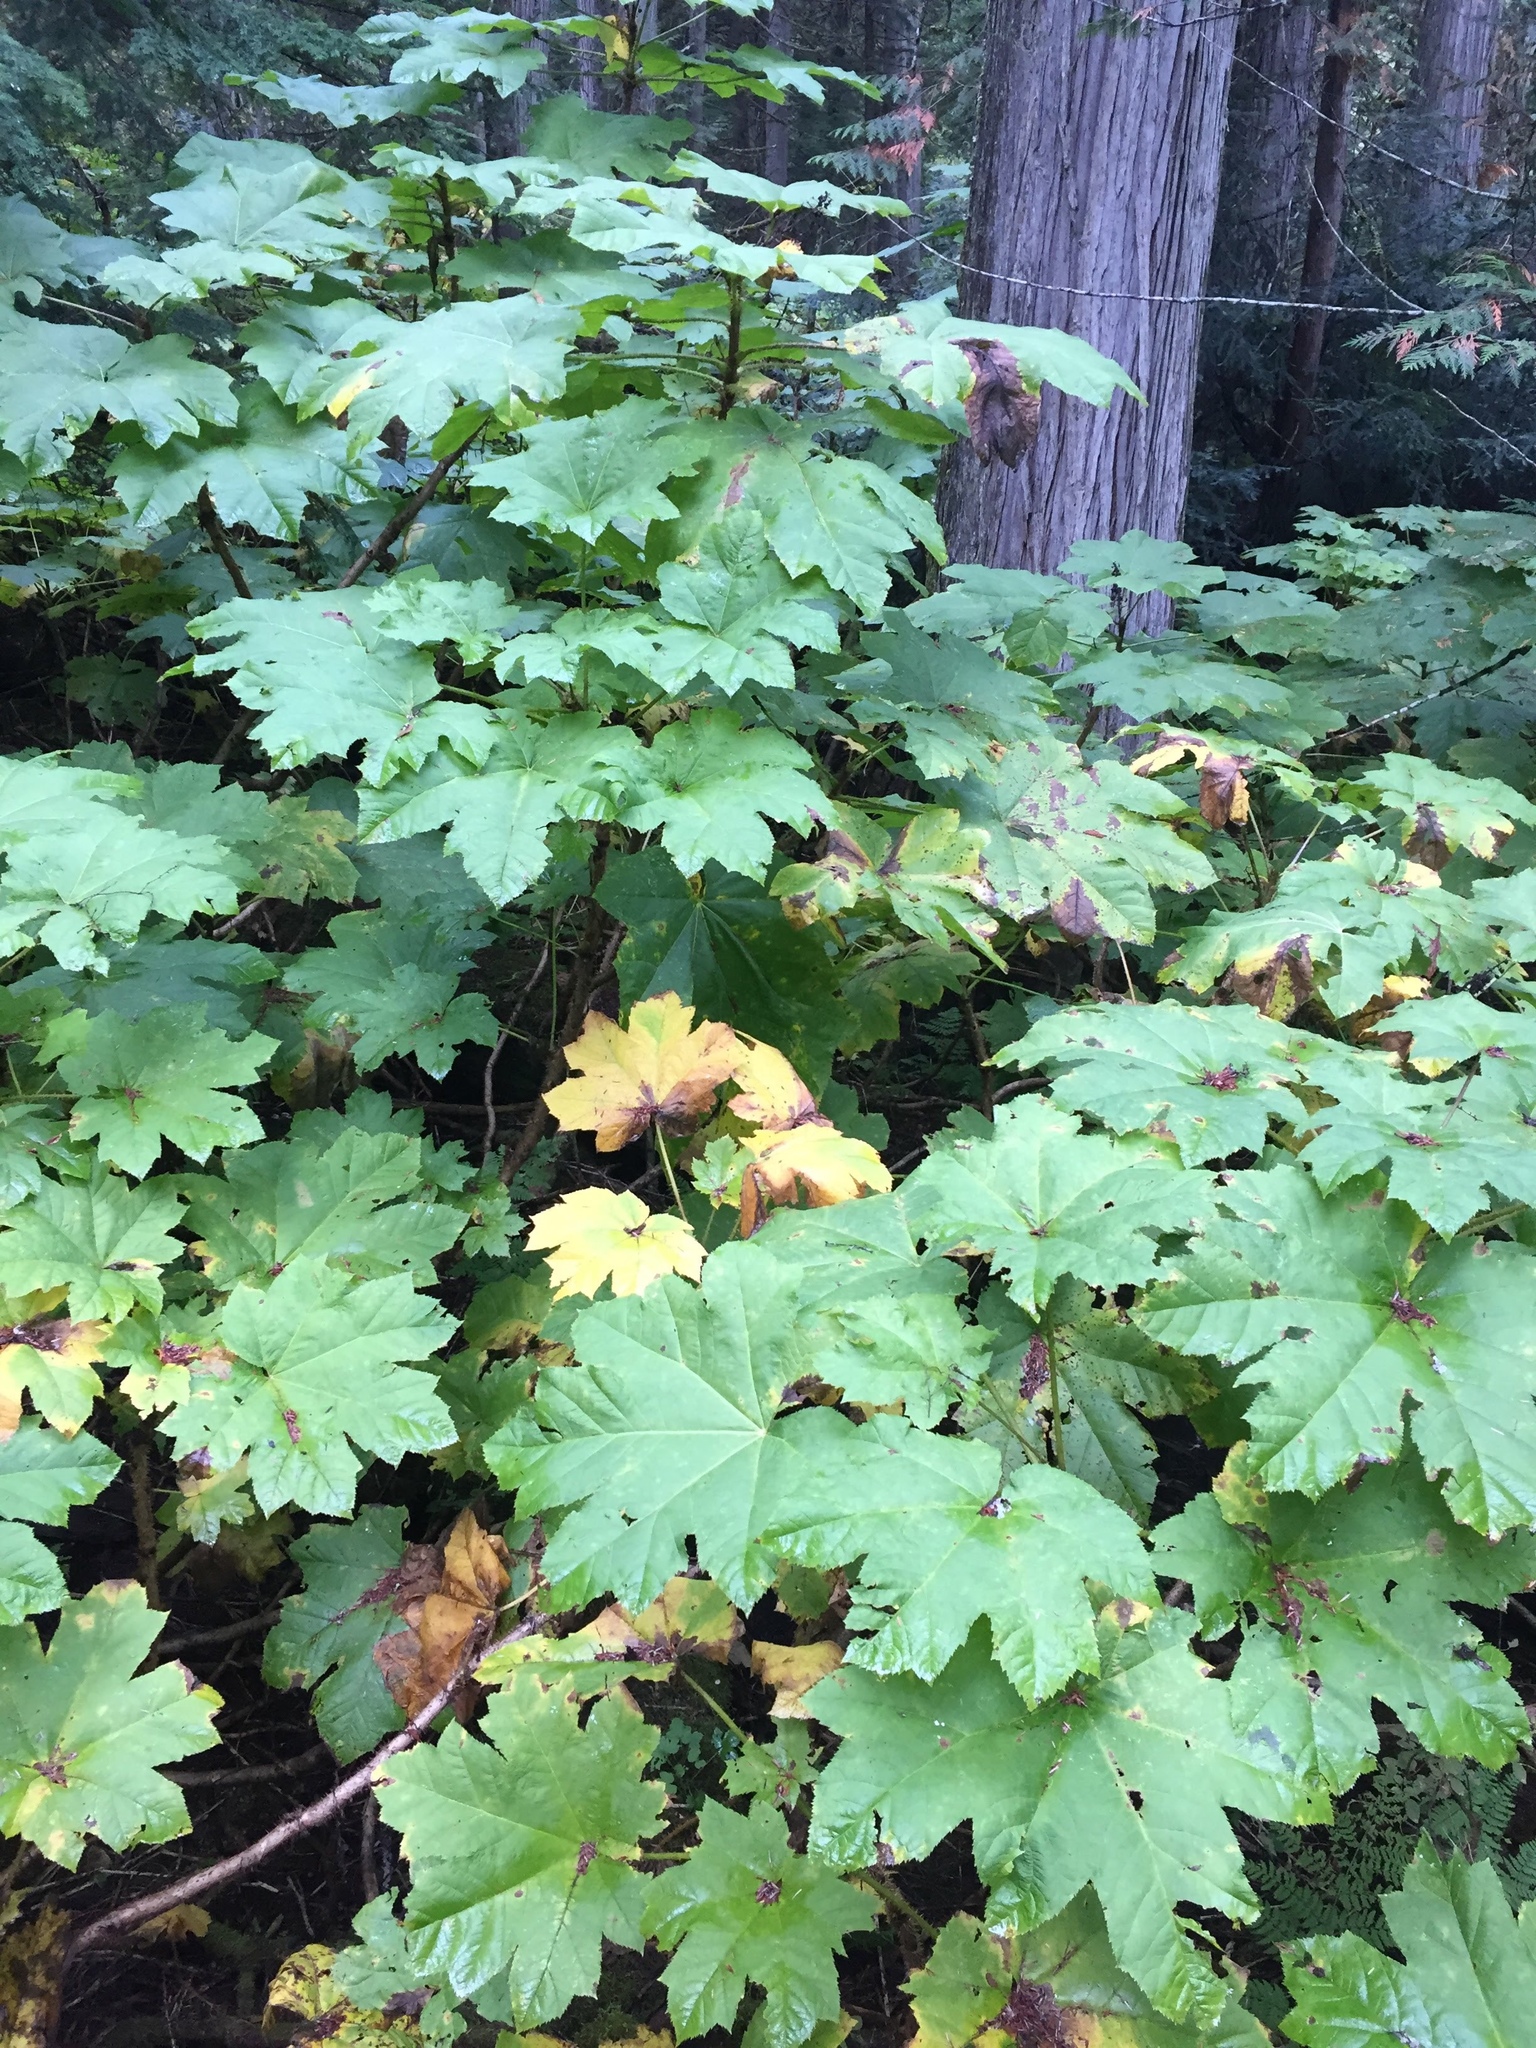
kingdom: Plantae
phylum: Tracheophyta
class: Magnoliopsida
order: Apiales
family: Araliaceae
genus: Oplopanax
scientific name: Oplopanax horridus
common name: Devil's walking-stick
